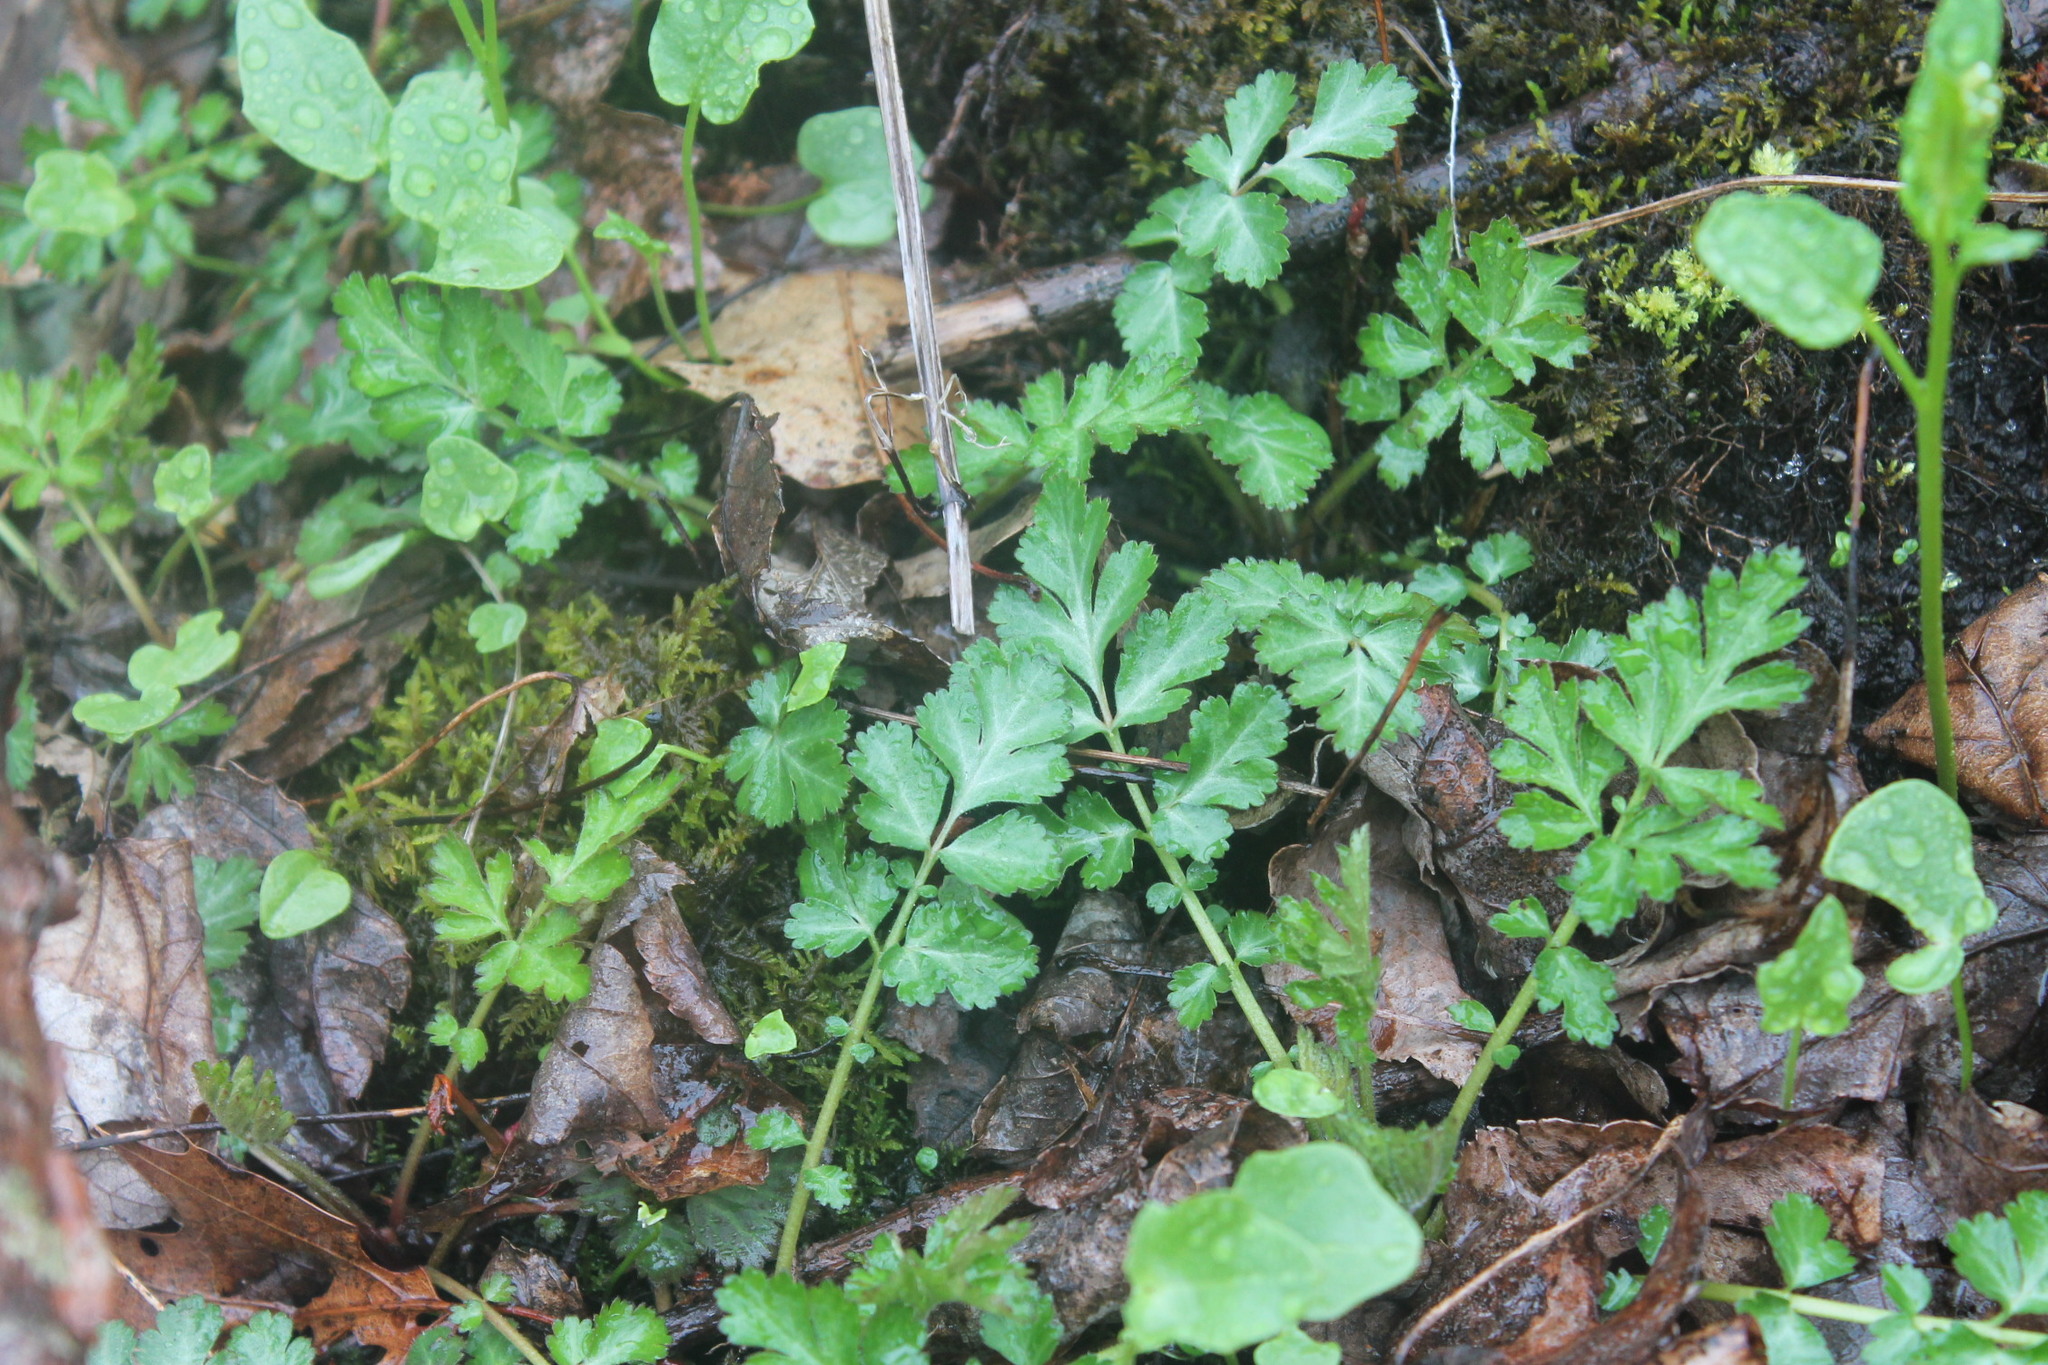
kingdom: Plantae
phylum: Tracheophyta
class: Magnoliopsida
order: Rosales
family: Rosaceae
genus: Geum
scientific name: Geum canadense
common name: White avens
